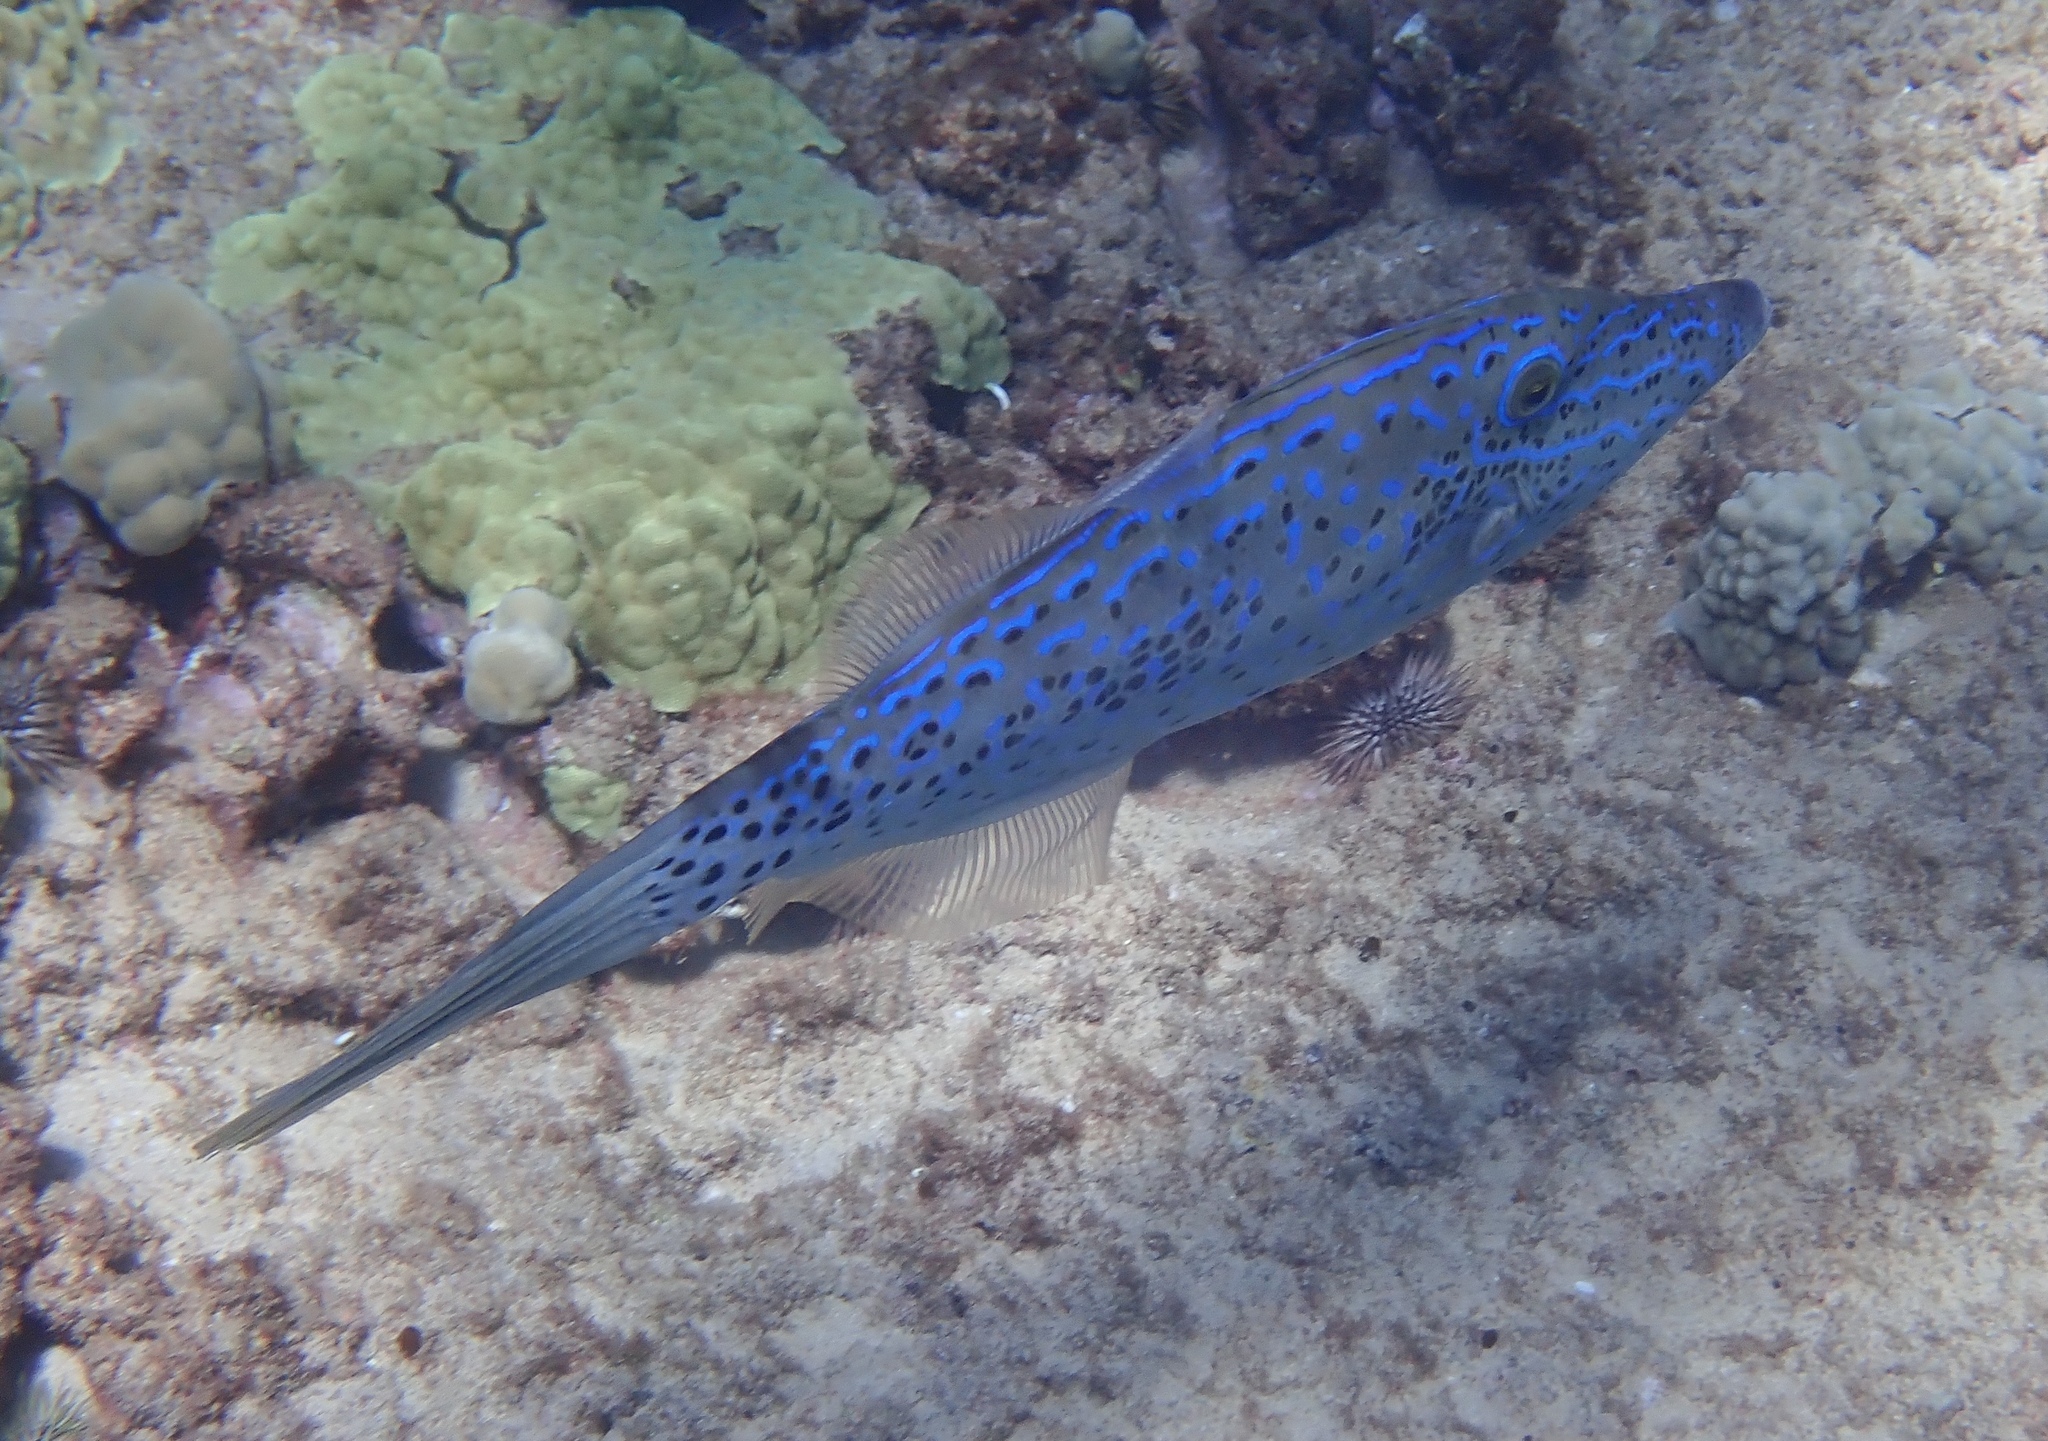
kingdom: Animalia
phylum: Chordata
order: Tetraodontiformes
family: Monacanthidae
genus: Aluterus
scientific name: Aluterus scriptus
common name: Scribbled leatherjacket filefish
